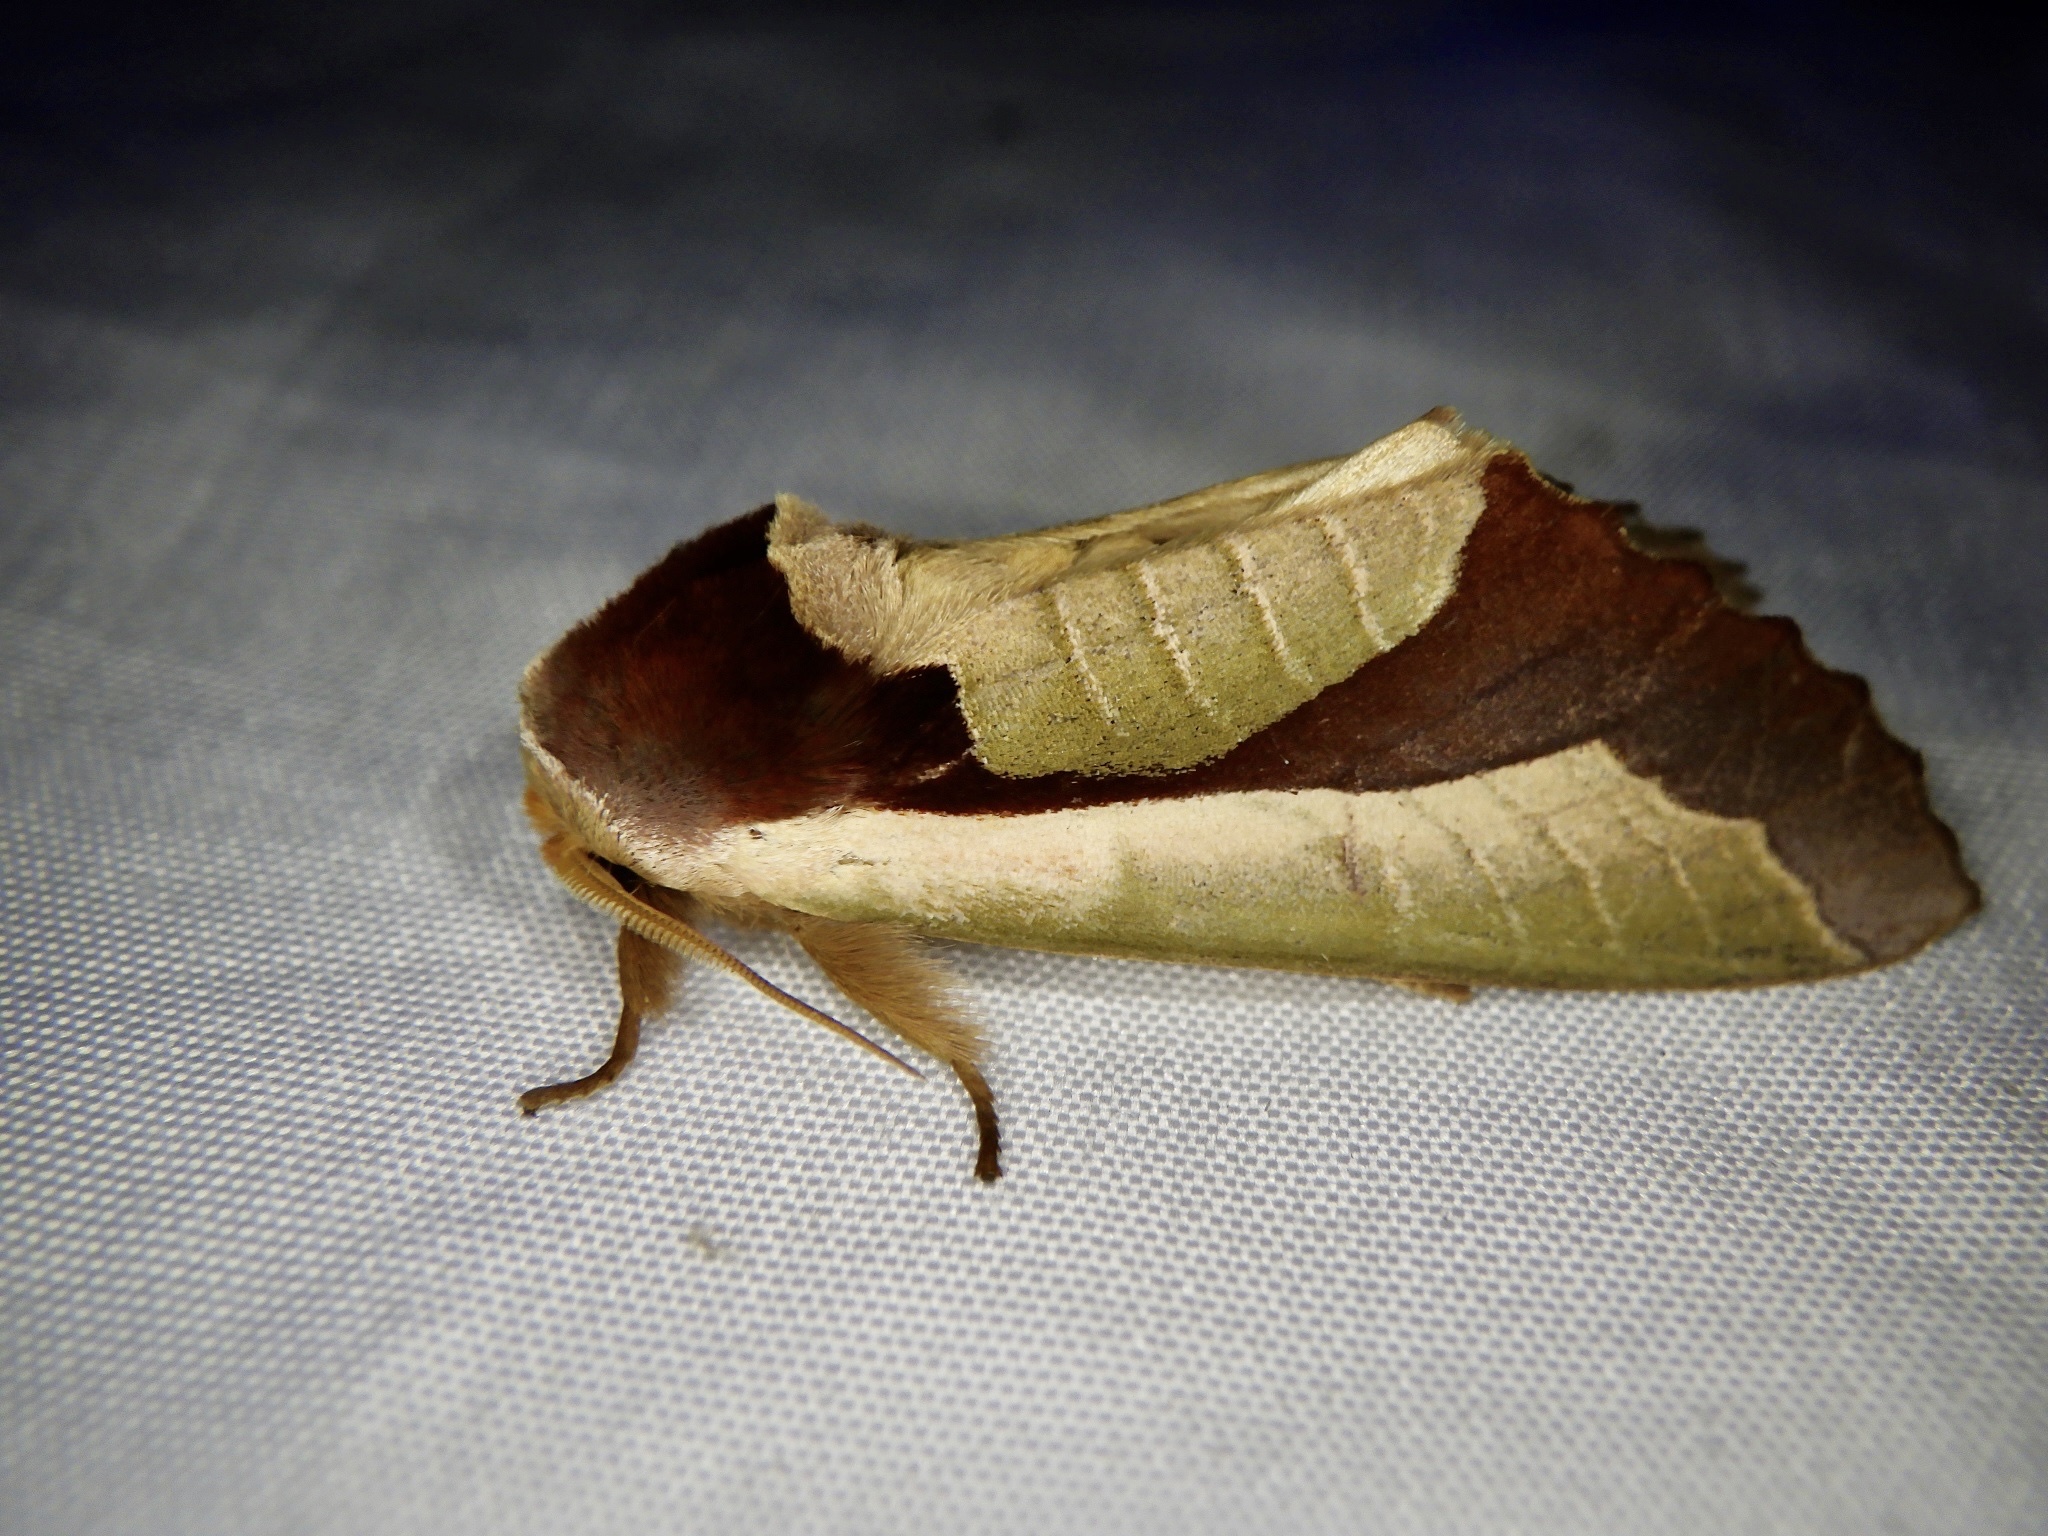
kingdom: Animalia
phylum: Arthropoda
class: Insecta
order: Lepidoptera
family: Notodontidae
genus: Uropyia
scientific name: Uropyia meticulodina
